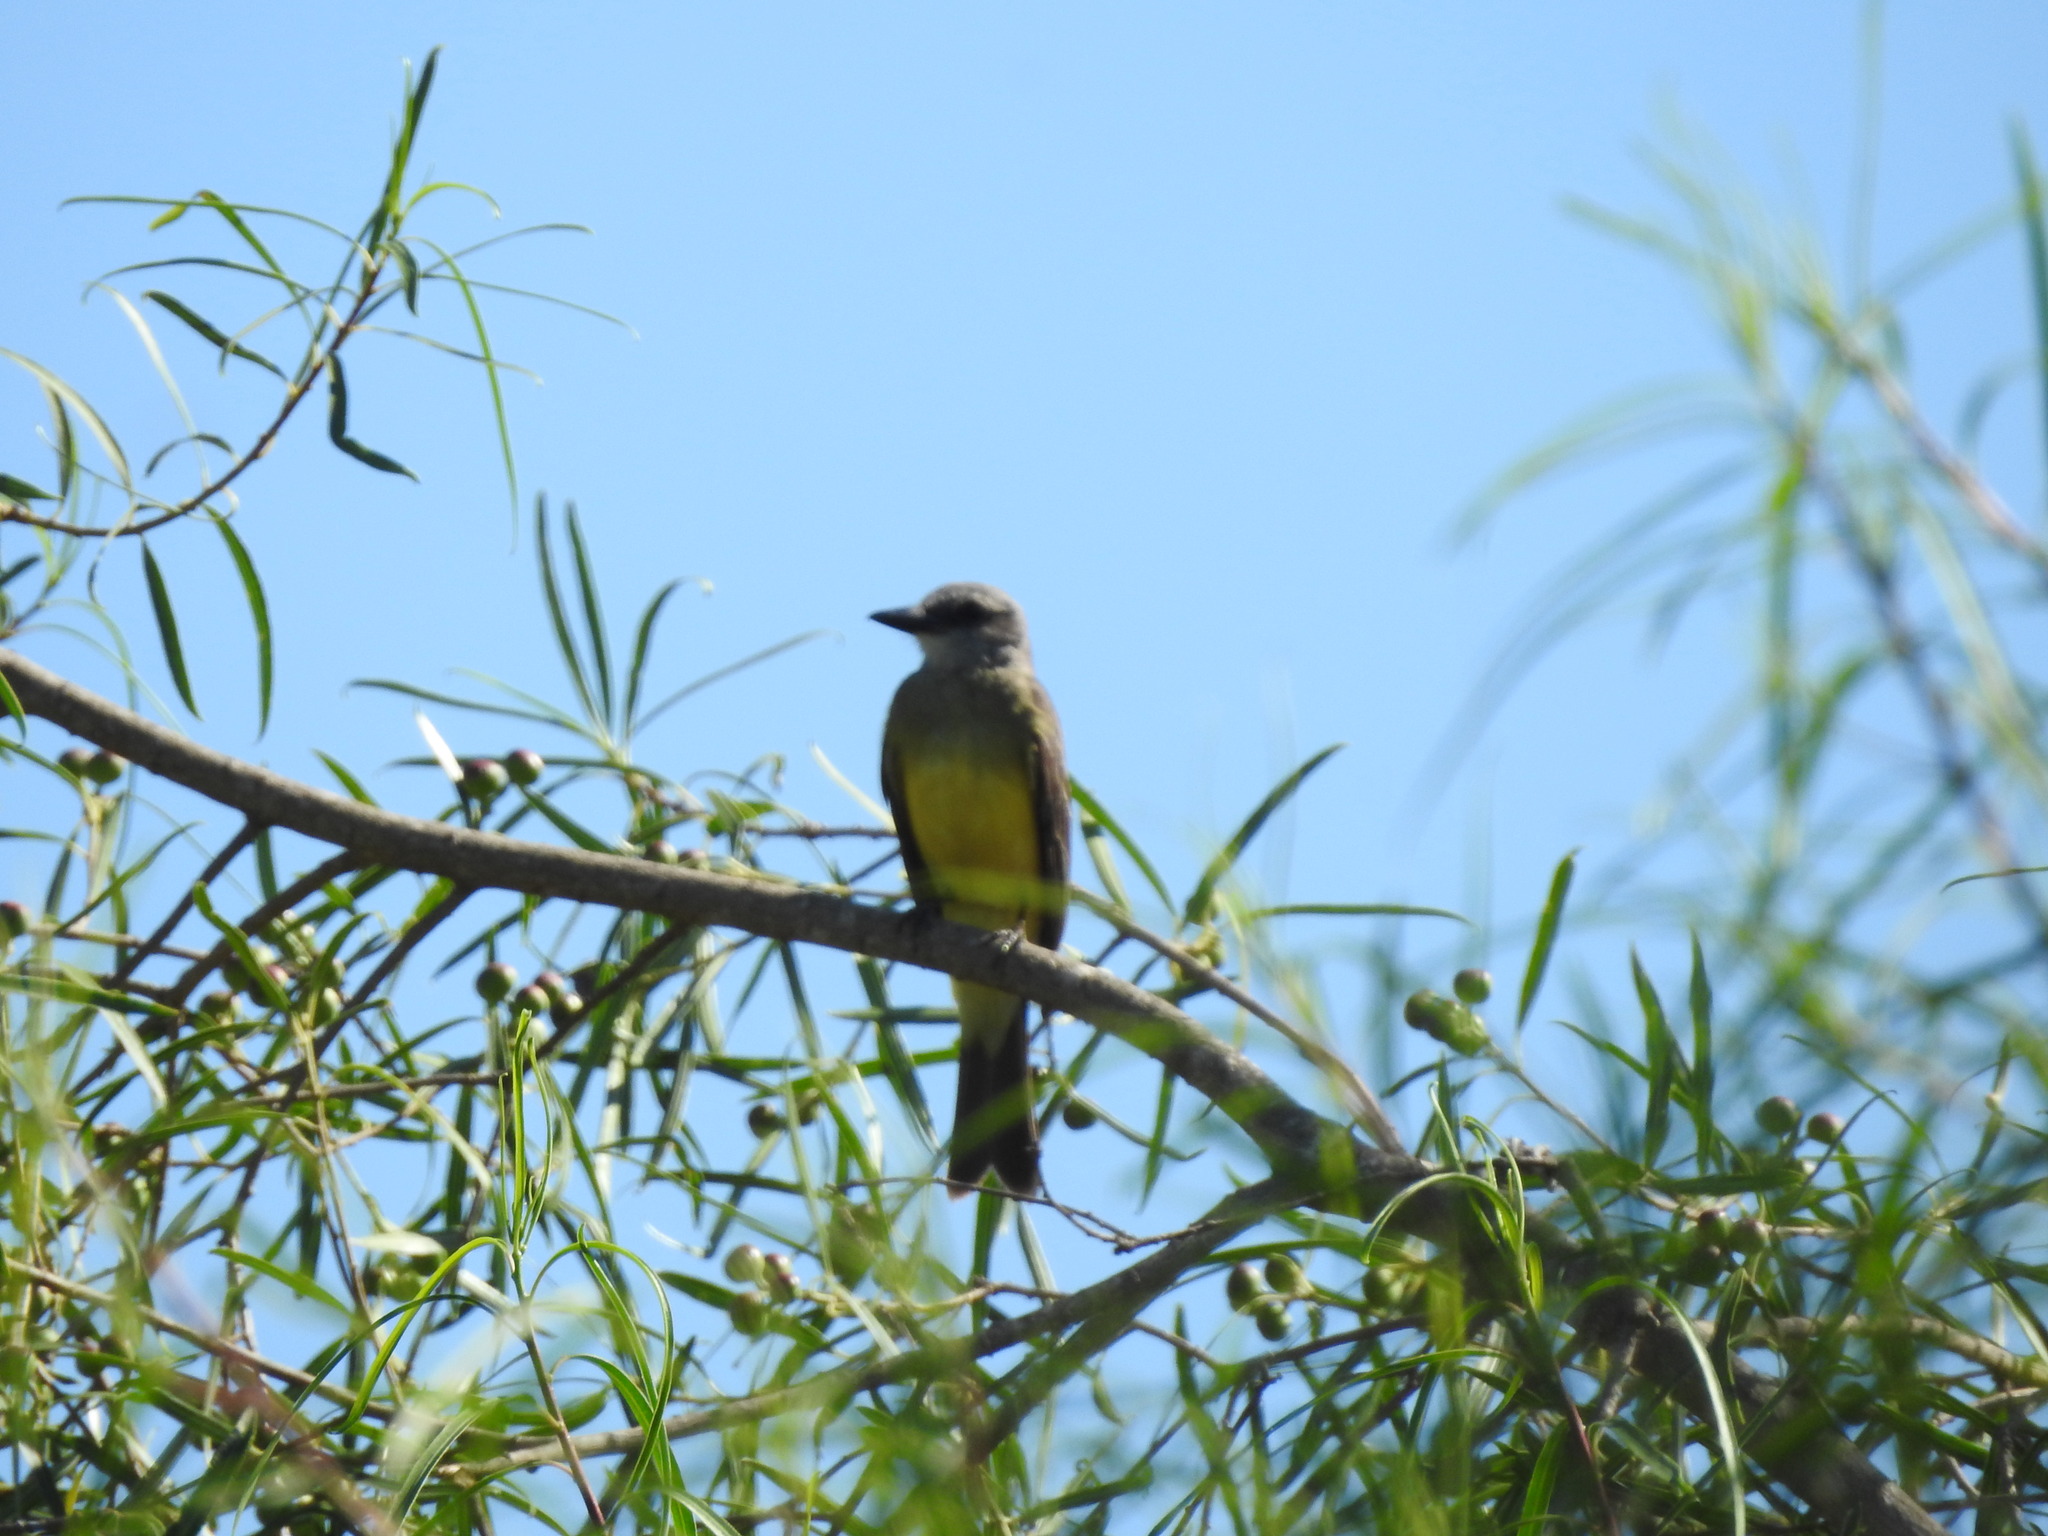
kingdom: Animalia
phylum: Chordata
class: Aves
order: Passeriformes
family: Tyrannidae
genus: Tyrannus
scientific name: Tyrannus melancholicus
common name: Tropical kingbird
